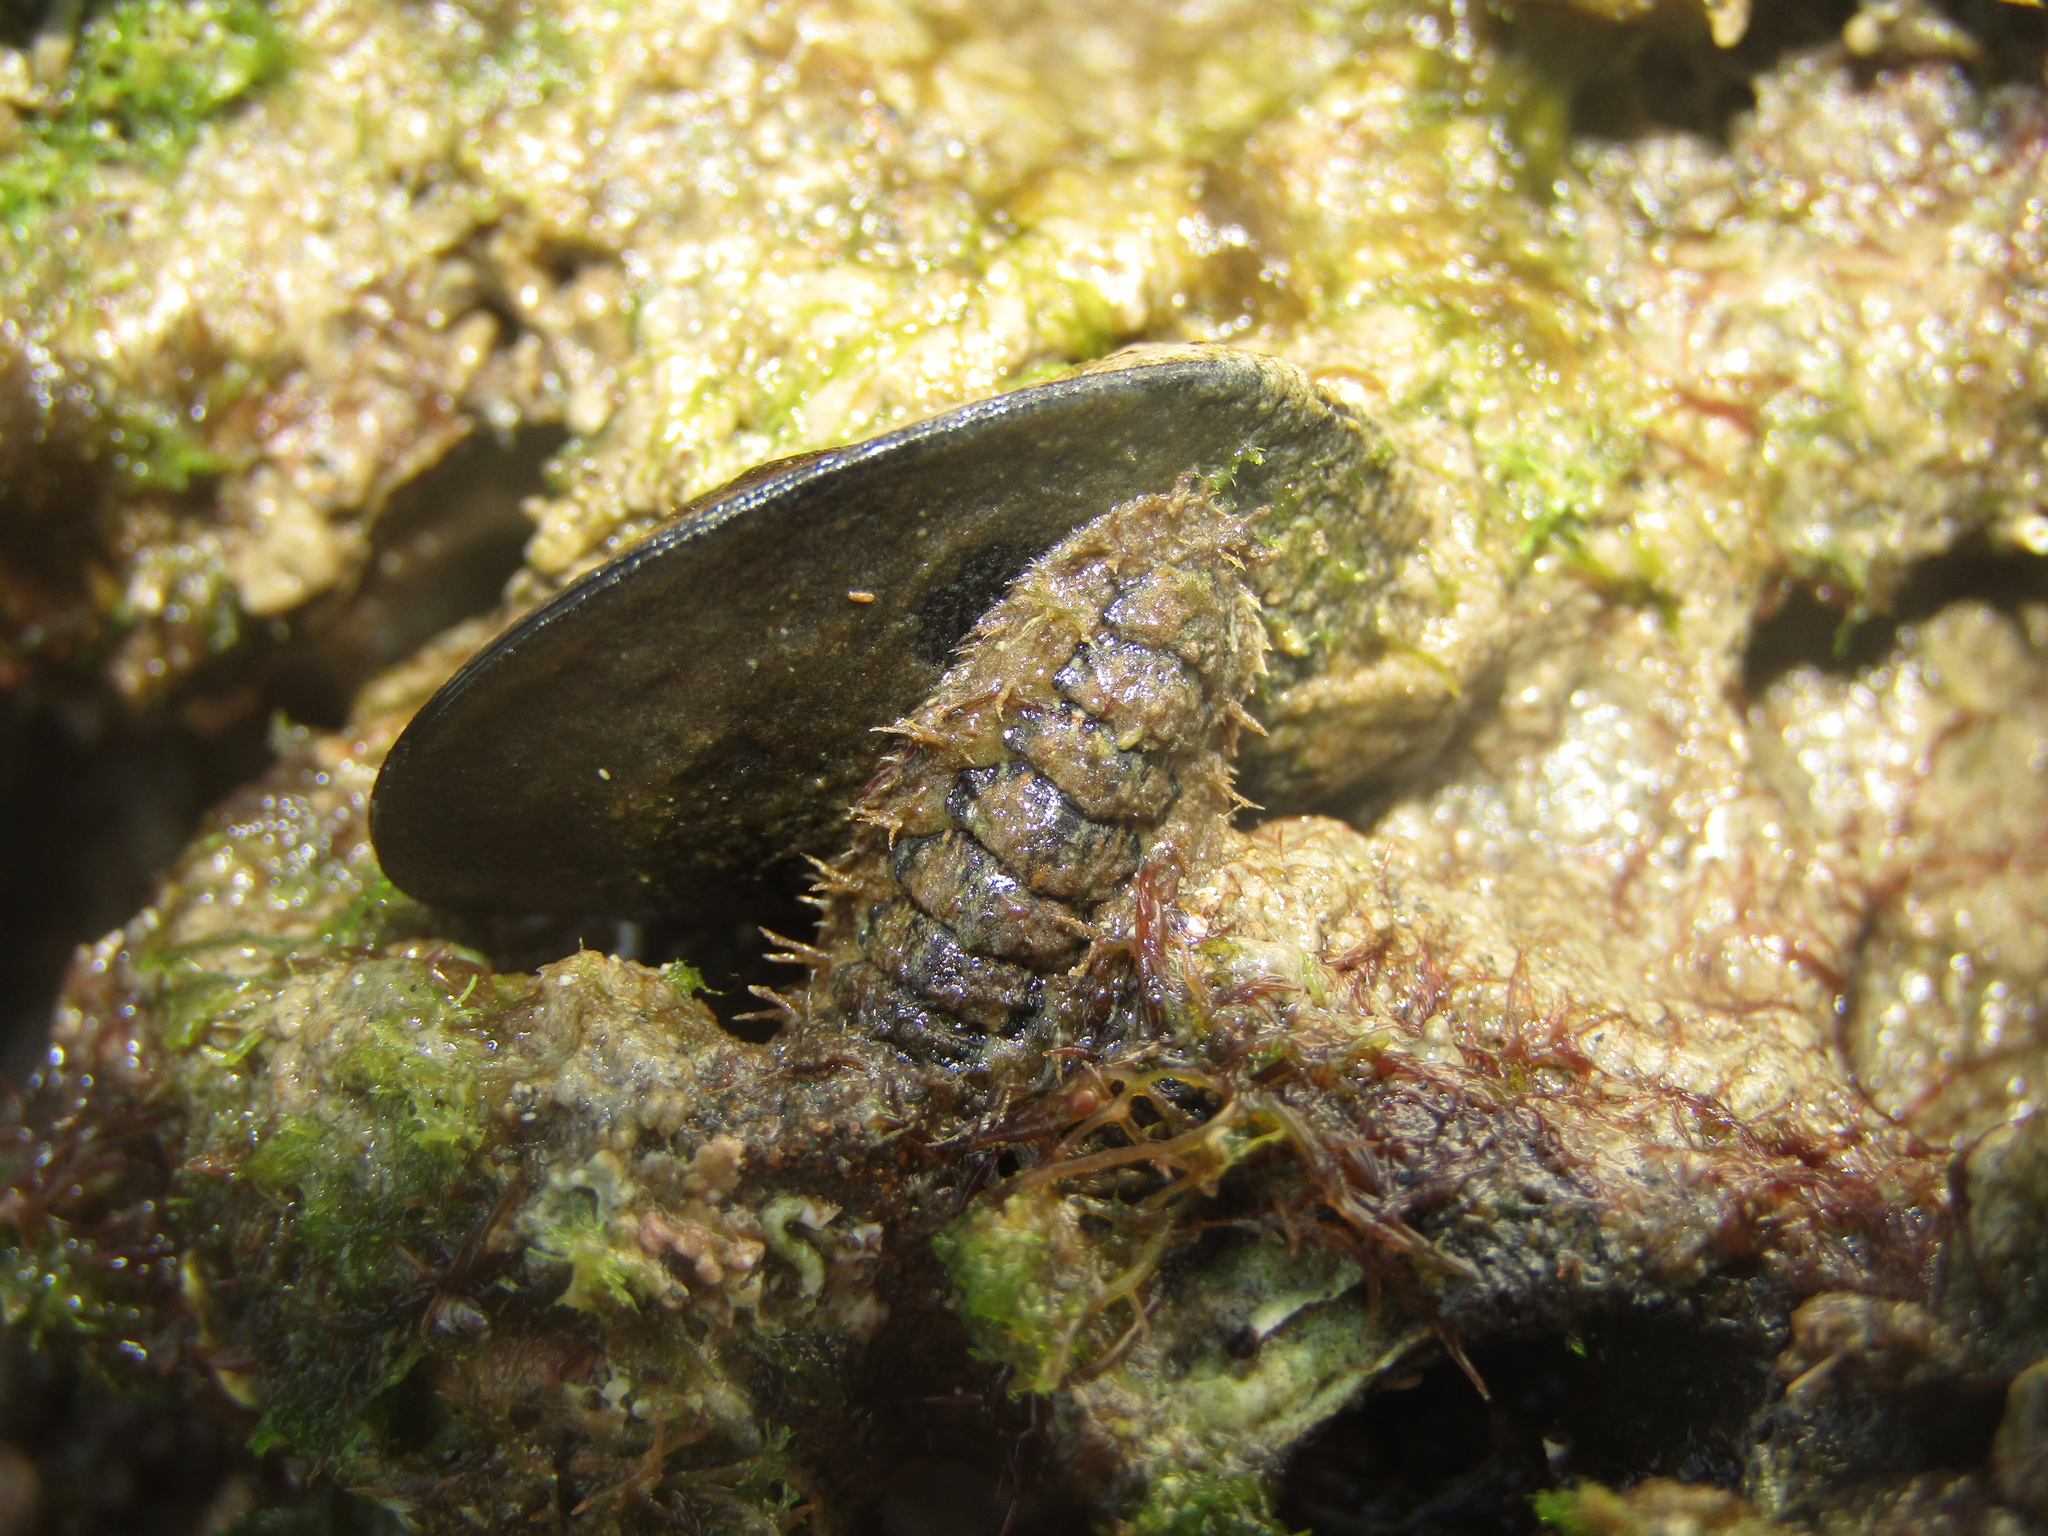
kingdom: Animalia
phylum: Mollusca
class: Polyplacophora
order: Chitonida
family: Mopaliidae
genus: Plaxiphora
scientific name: Plaxiphora caelata
